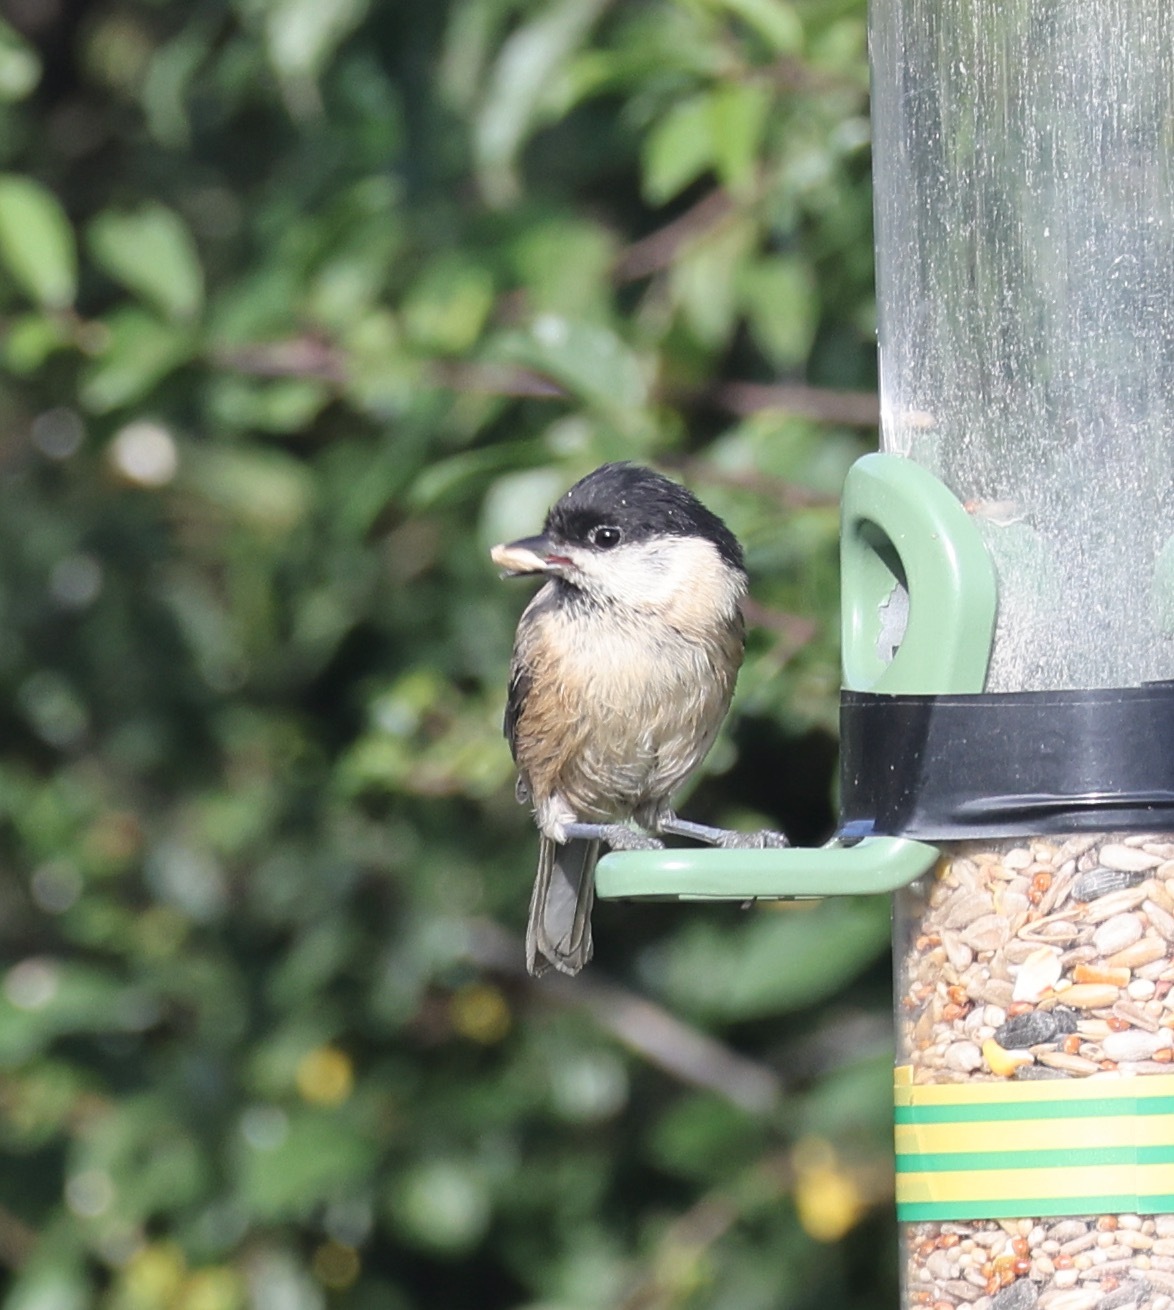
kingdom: Animalia
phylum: Chordata
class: Aves
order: Passeriformes
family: Paridae
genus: Poecile
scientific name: Poecile montanus
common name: Willow tit
